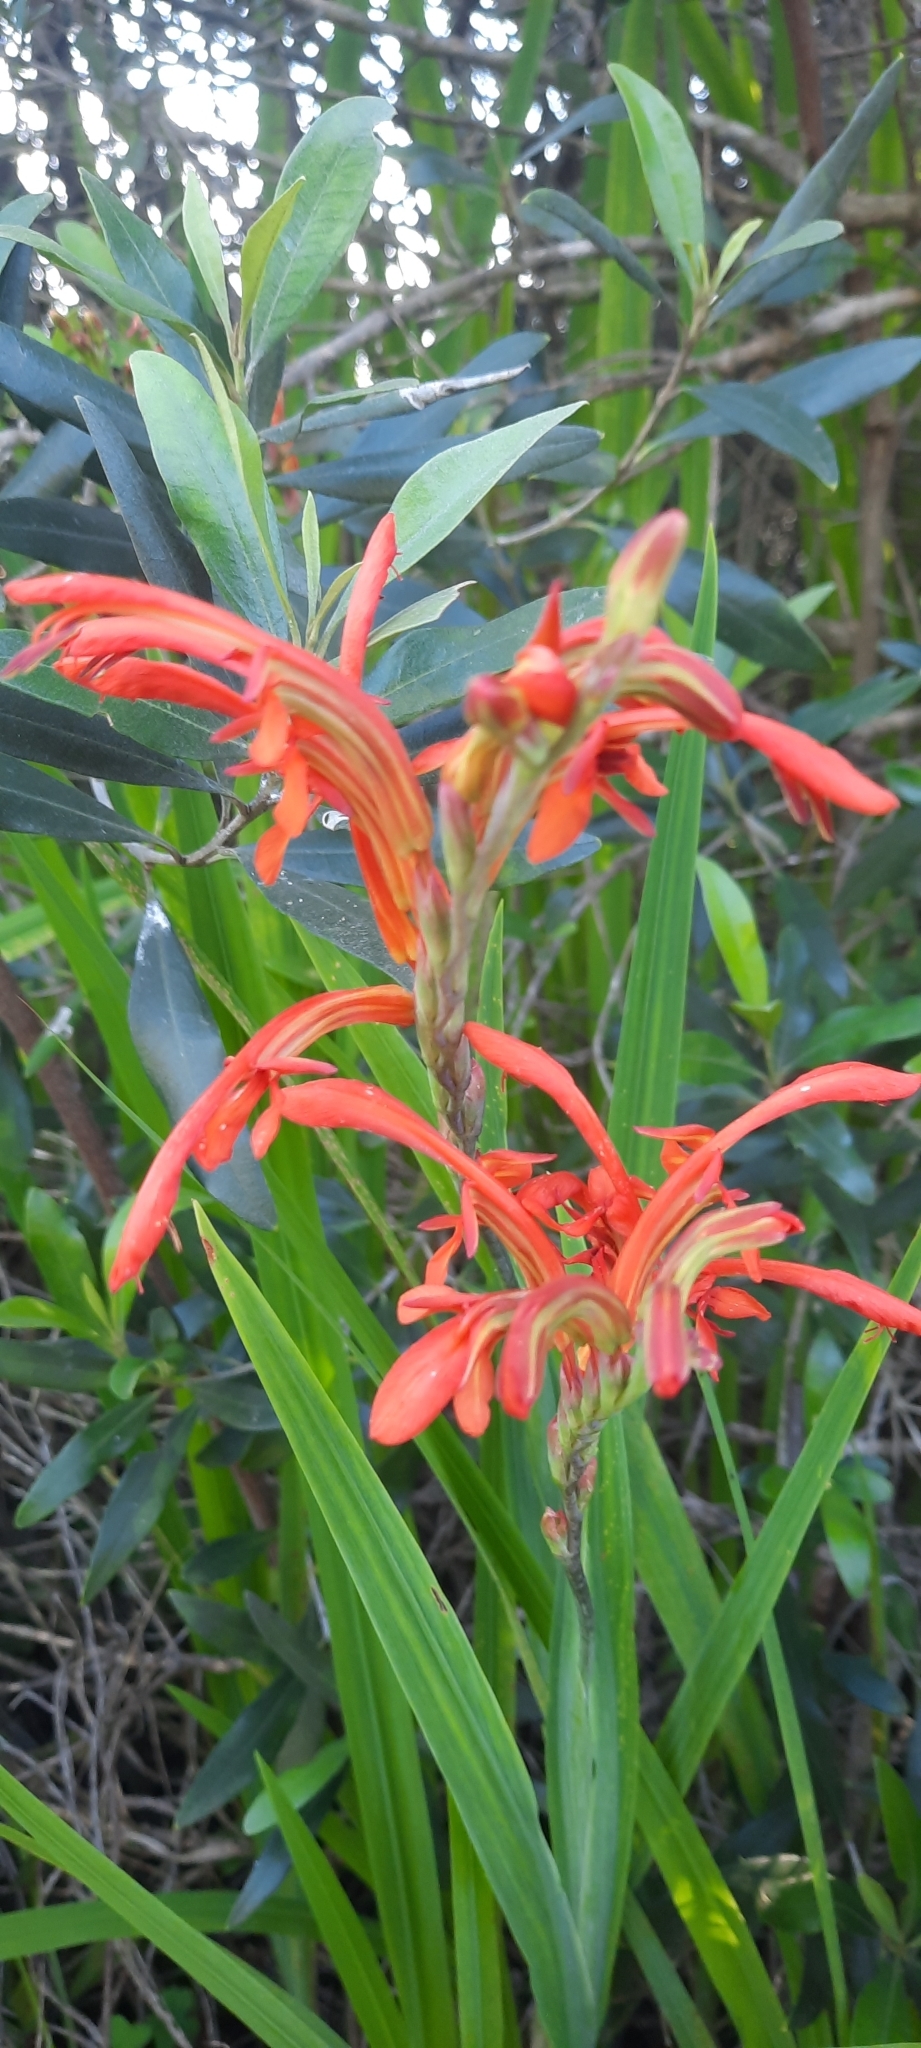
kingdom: Plantae
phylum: Tracheophyta
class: Liliopsida
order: Asparagales
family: Iridaceae
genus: Chasmanthe
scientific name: Chasmanthe aethiopica
